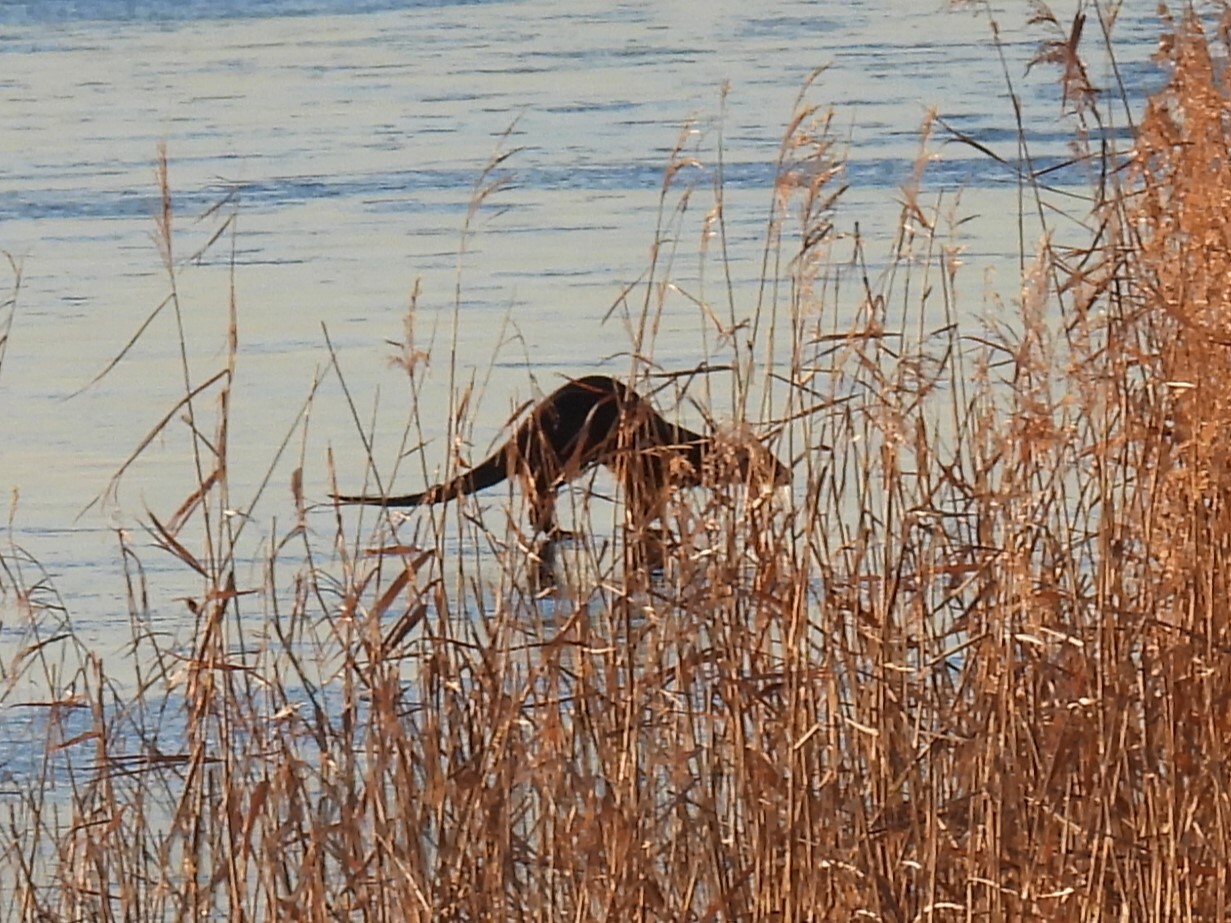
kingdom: Animalia
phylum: Chordata
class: Mammalia
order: Carnivora
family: Mustelidae
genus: Lutra
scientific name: Lutra lutra
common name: European otter
